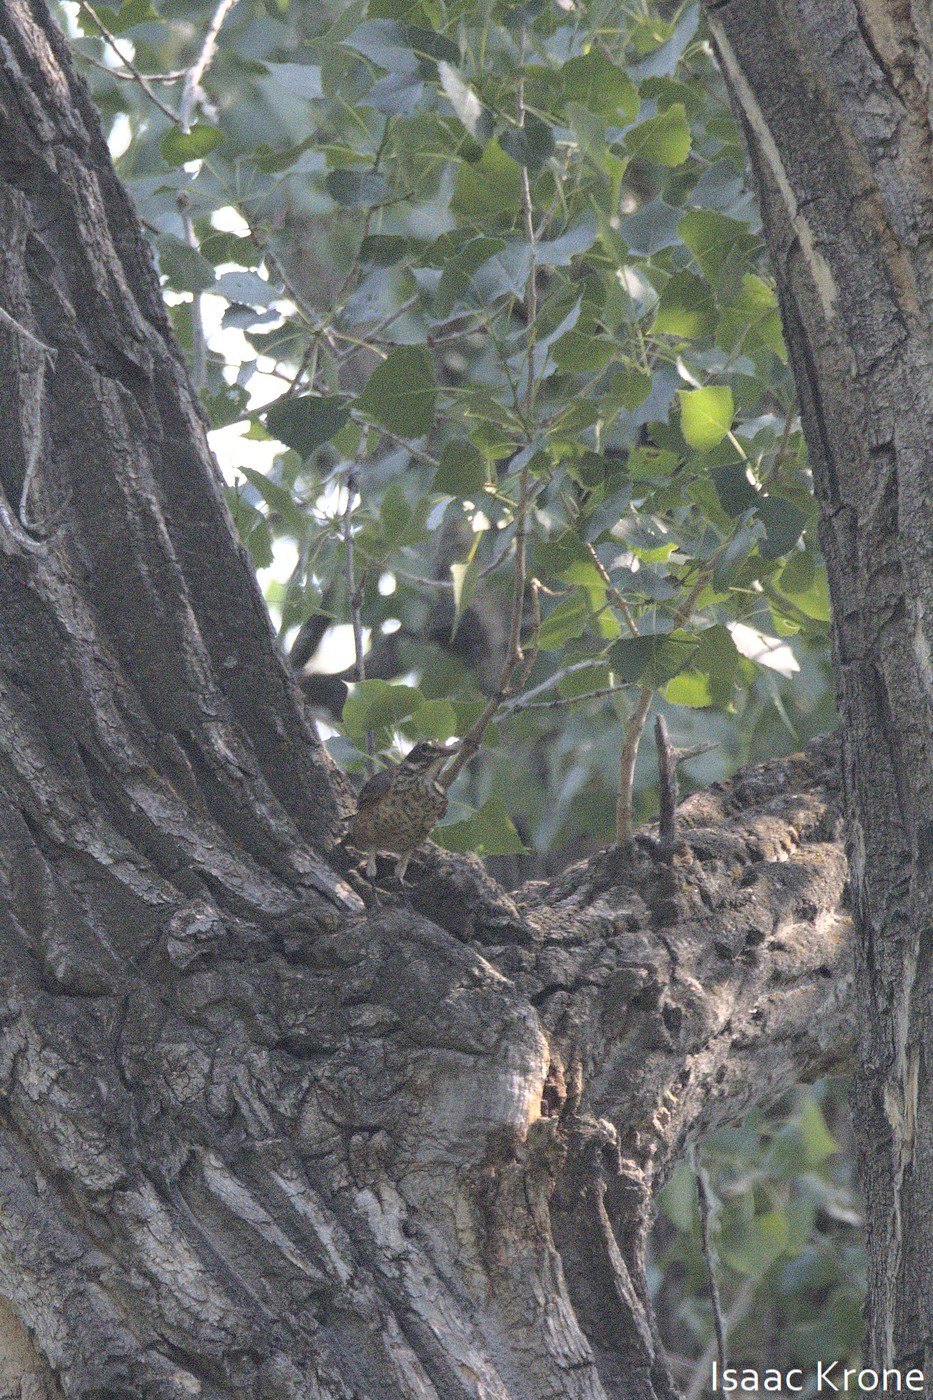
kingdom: Animalia
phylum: Chordata
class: Aves
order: Passeriformes
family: Turdidae
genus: Turdus
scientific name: Turdus migratorius
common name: American robin
